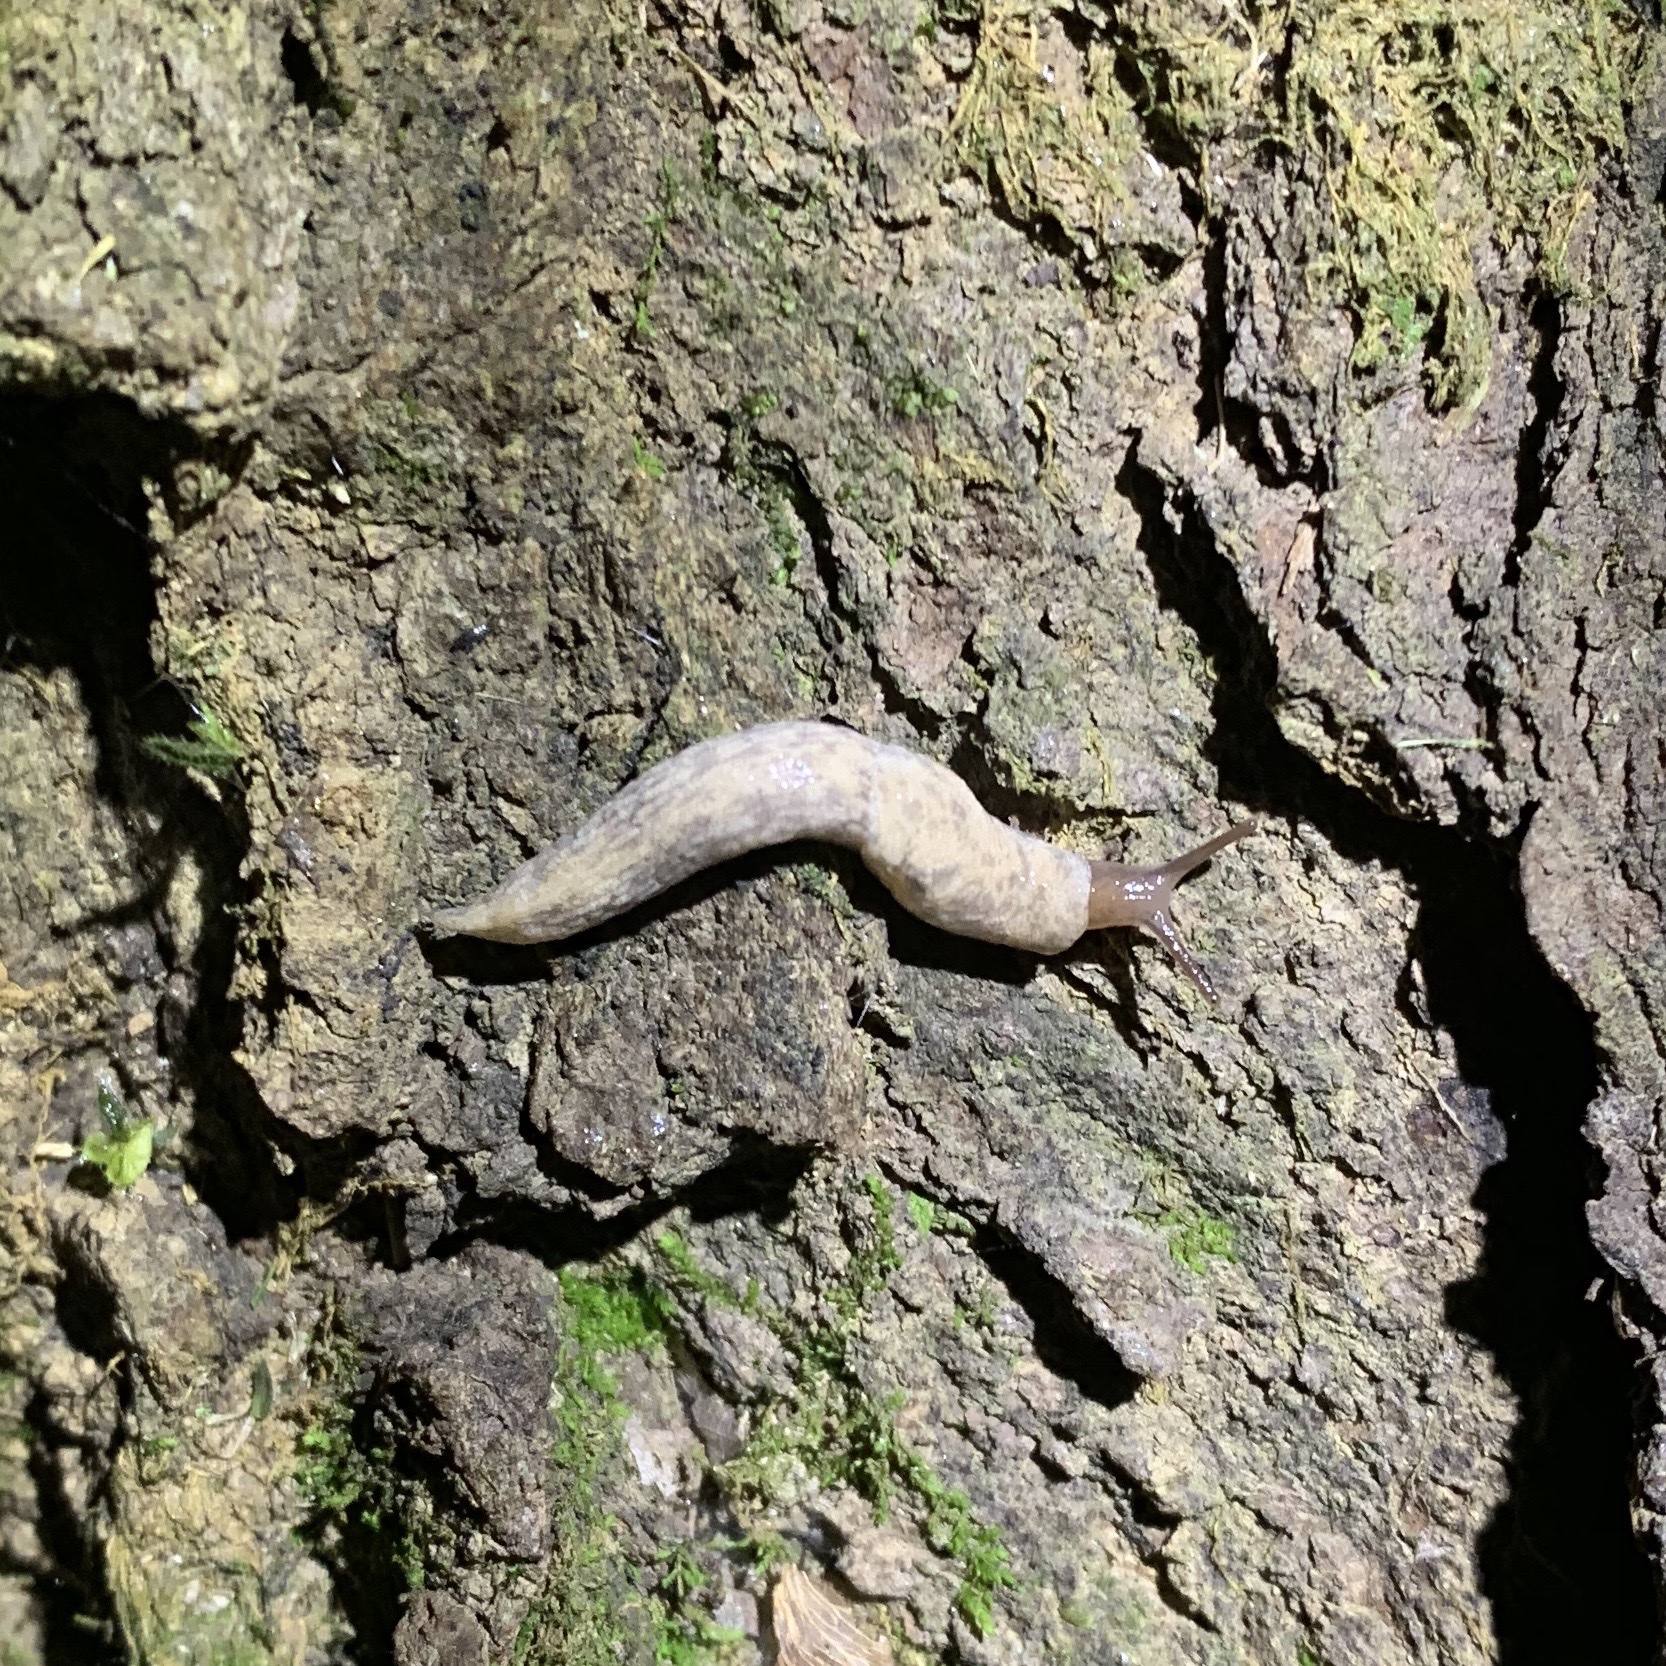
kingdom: Animalia
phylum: Mollusca
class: Gastropoda
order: Stylommatophora
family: Agriolimacidae
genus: Deroceras
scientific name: Deroceras reticulatum
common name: Gray field slug
